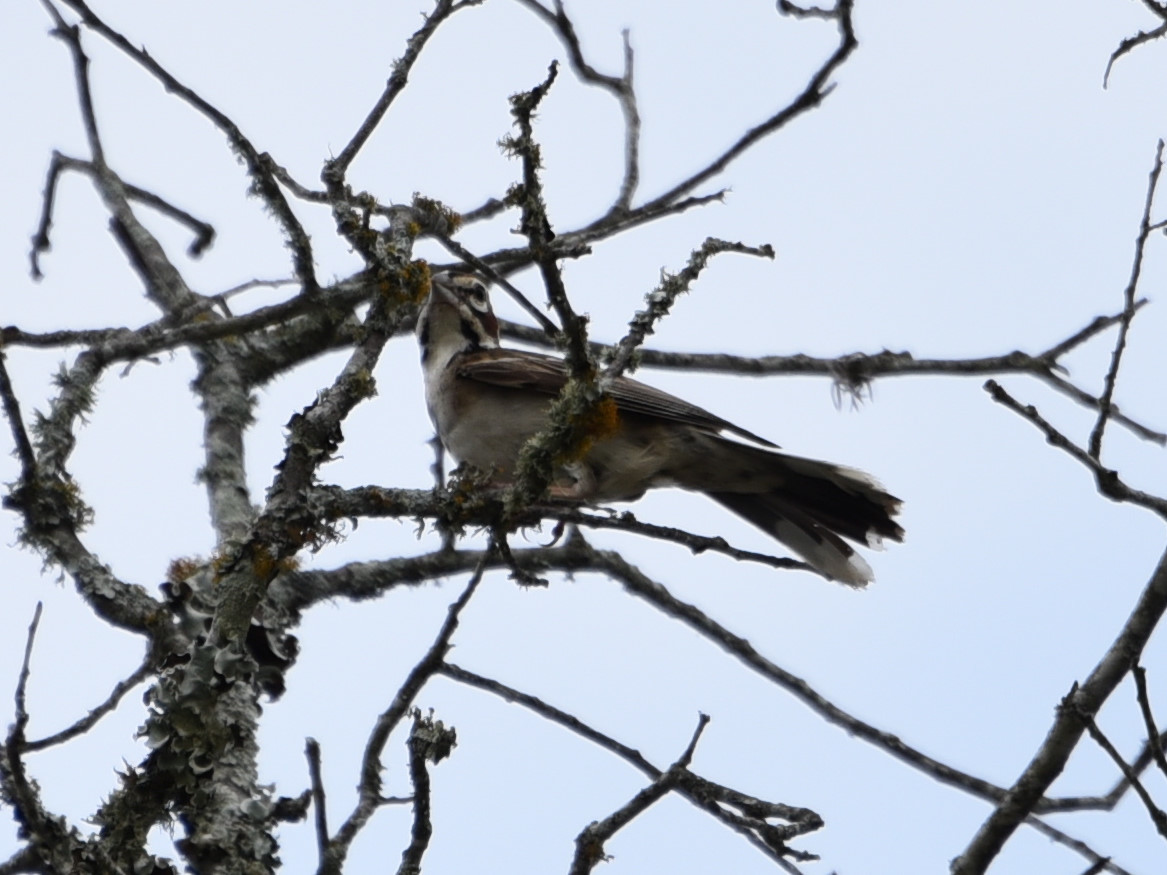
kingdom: Animalia
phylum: Chordata
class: Aves
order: Passeriformes
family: Passerellidae
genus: Chondestes
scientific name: Chondestes grammacus
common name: Lark sparrow
